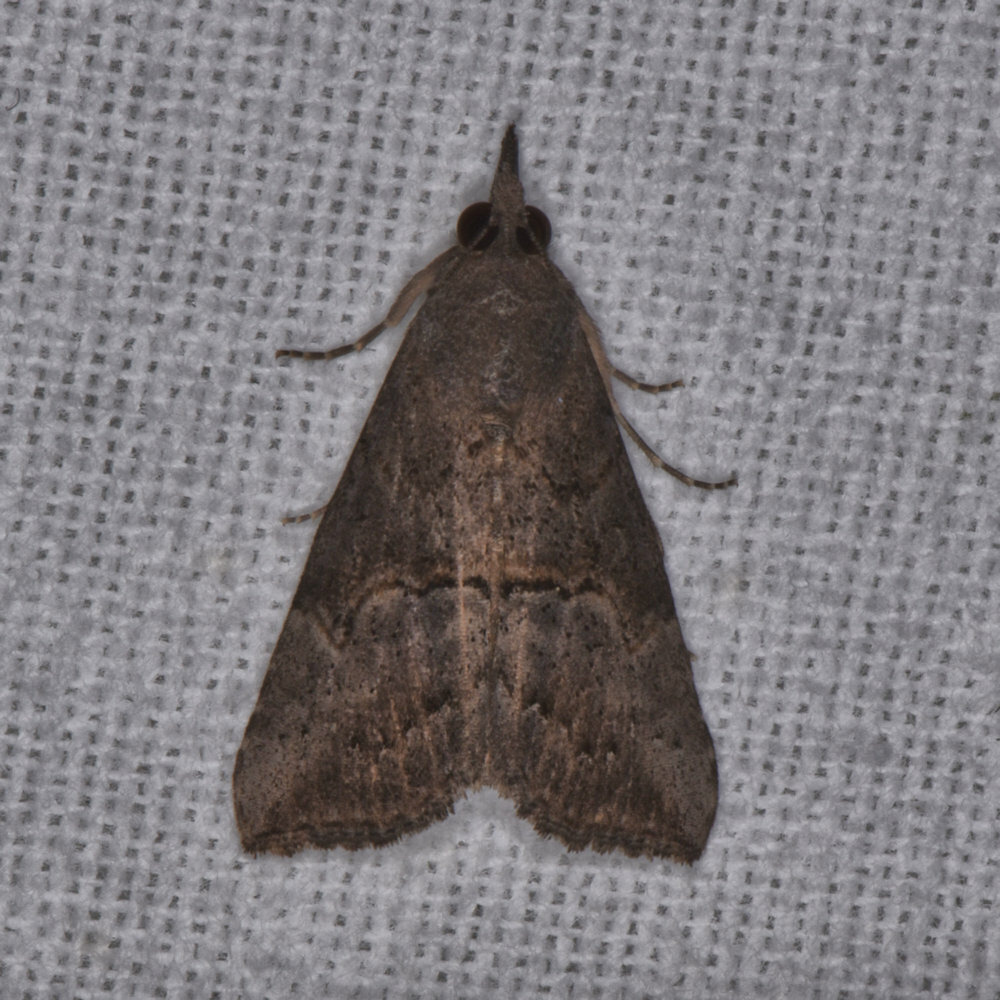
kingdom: Animalia
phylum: Arthropoda
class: Insecta
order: Lepidoptera
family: Erebidae
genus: Hypena
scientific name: Hypena scabra
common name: Green cloverworm
